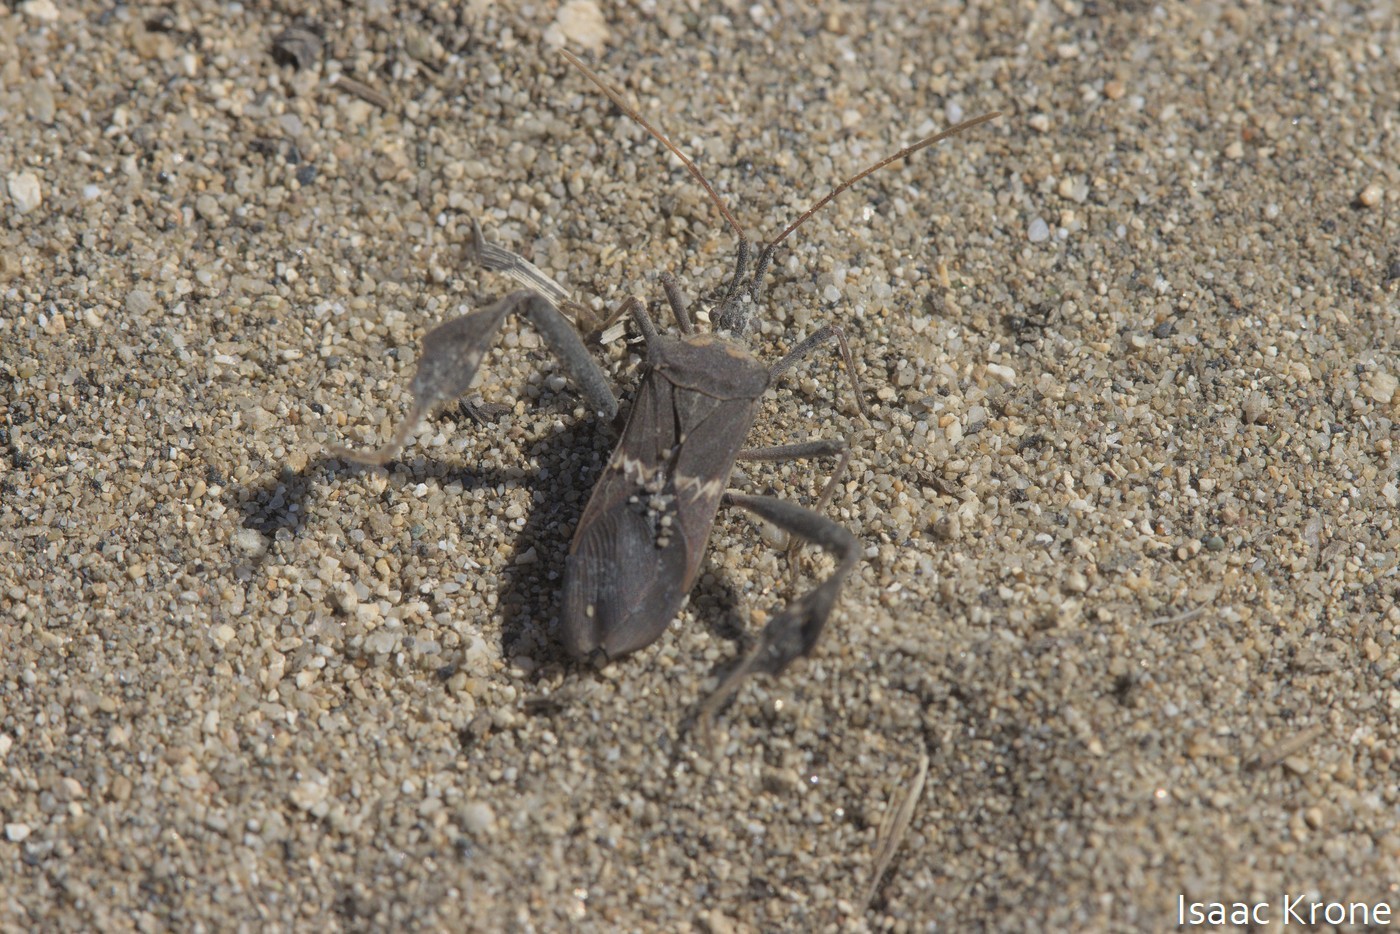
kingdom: Animalia
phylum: Arthropoda
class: Insecta
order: Hemiptera
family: Coreidae
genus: Leptoglossus
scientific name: Leptoglossus zonatus
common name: Large-legged bug
